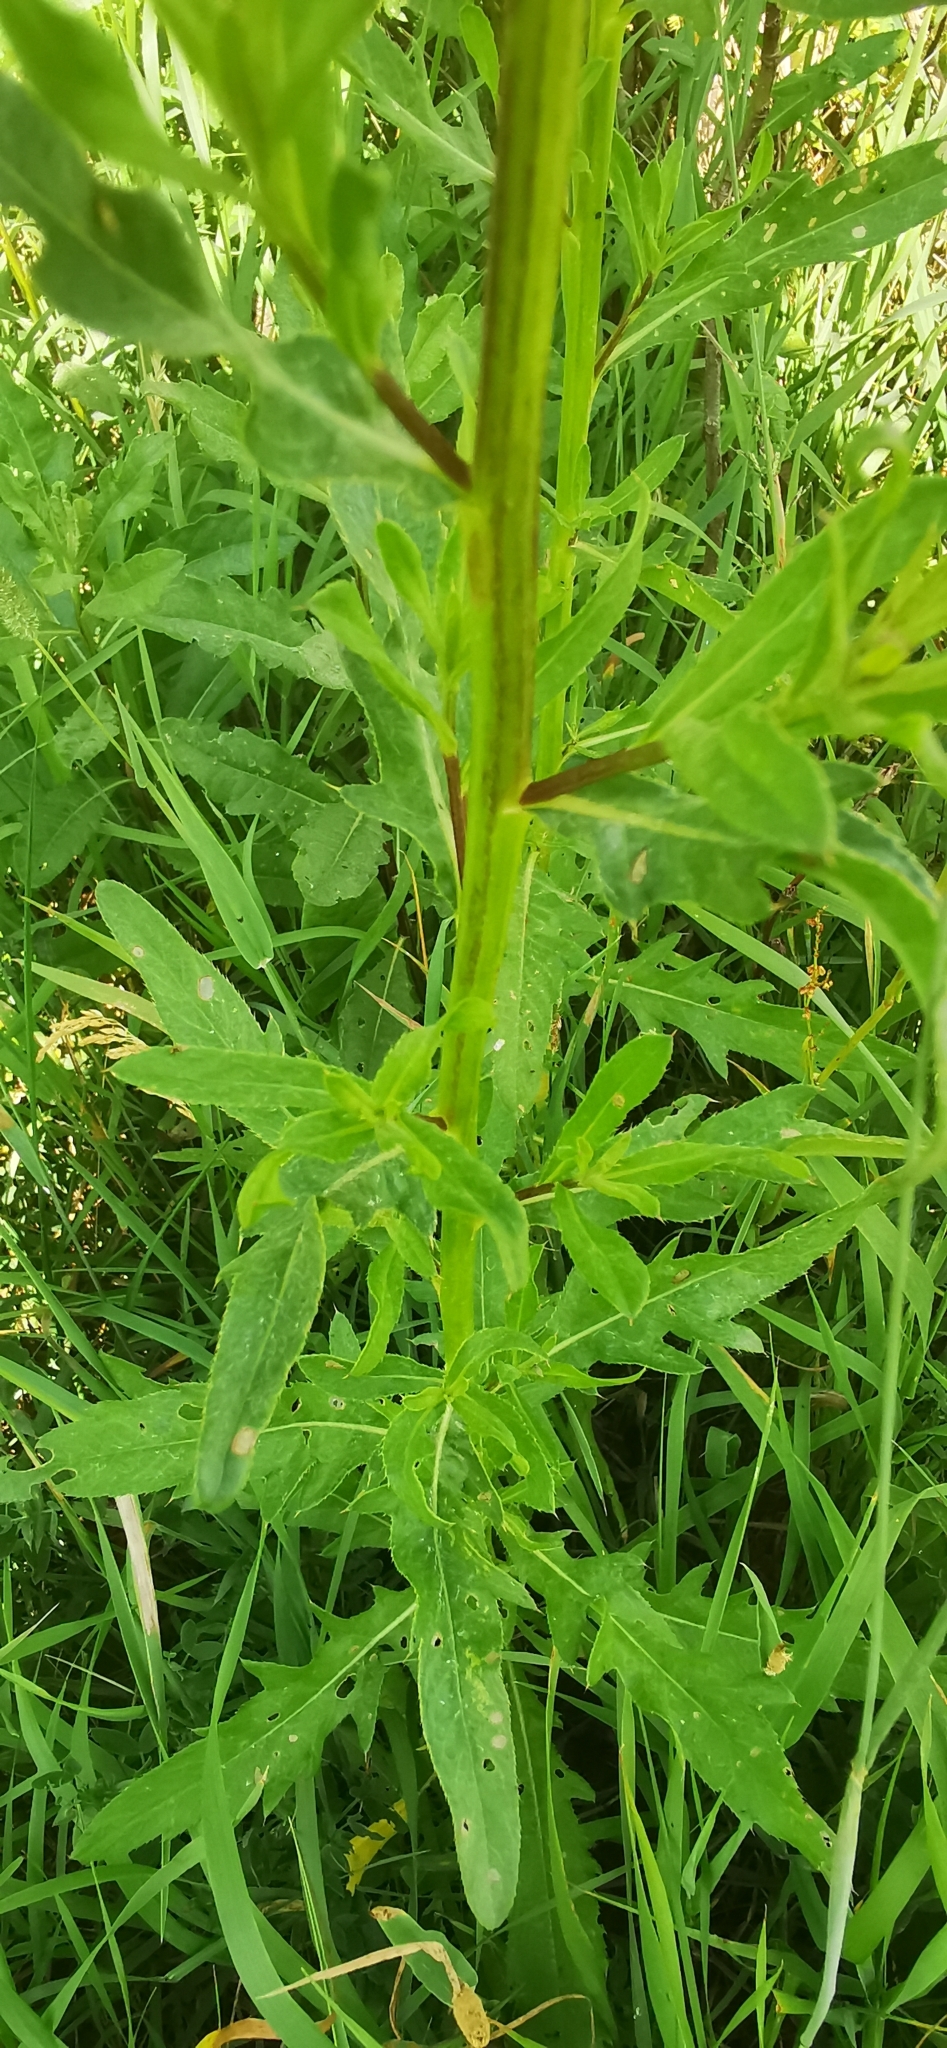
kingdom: Plantae
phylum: Tracheophyta
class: Magnoliopsida
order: Asterales
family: Asteraceae
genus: Cirsium
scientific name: Cirsium arvense
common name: Creeping thistle
